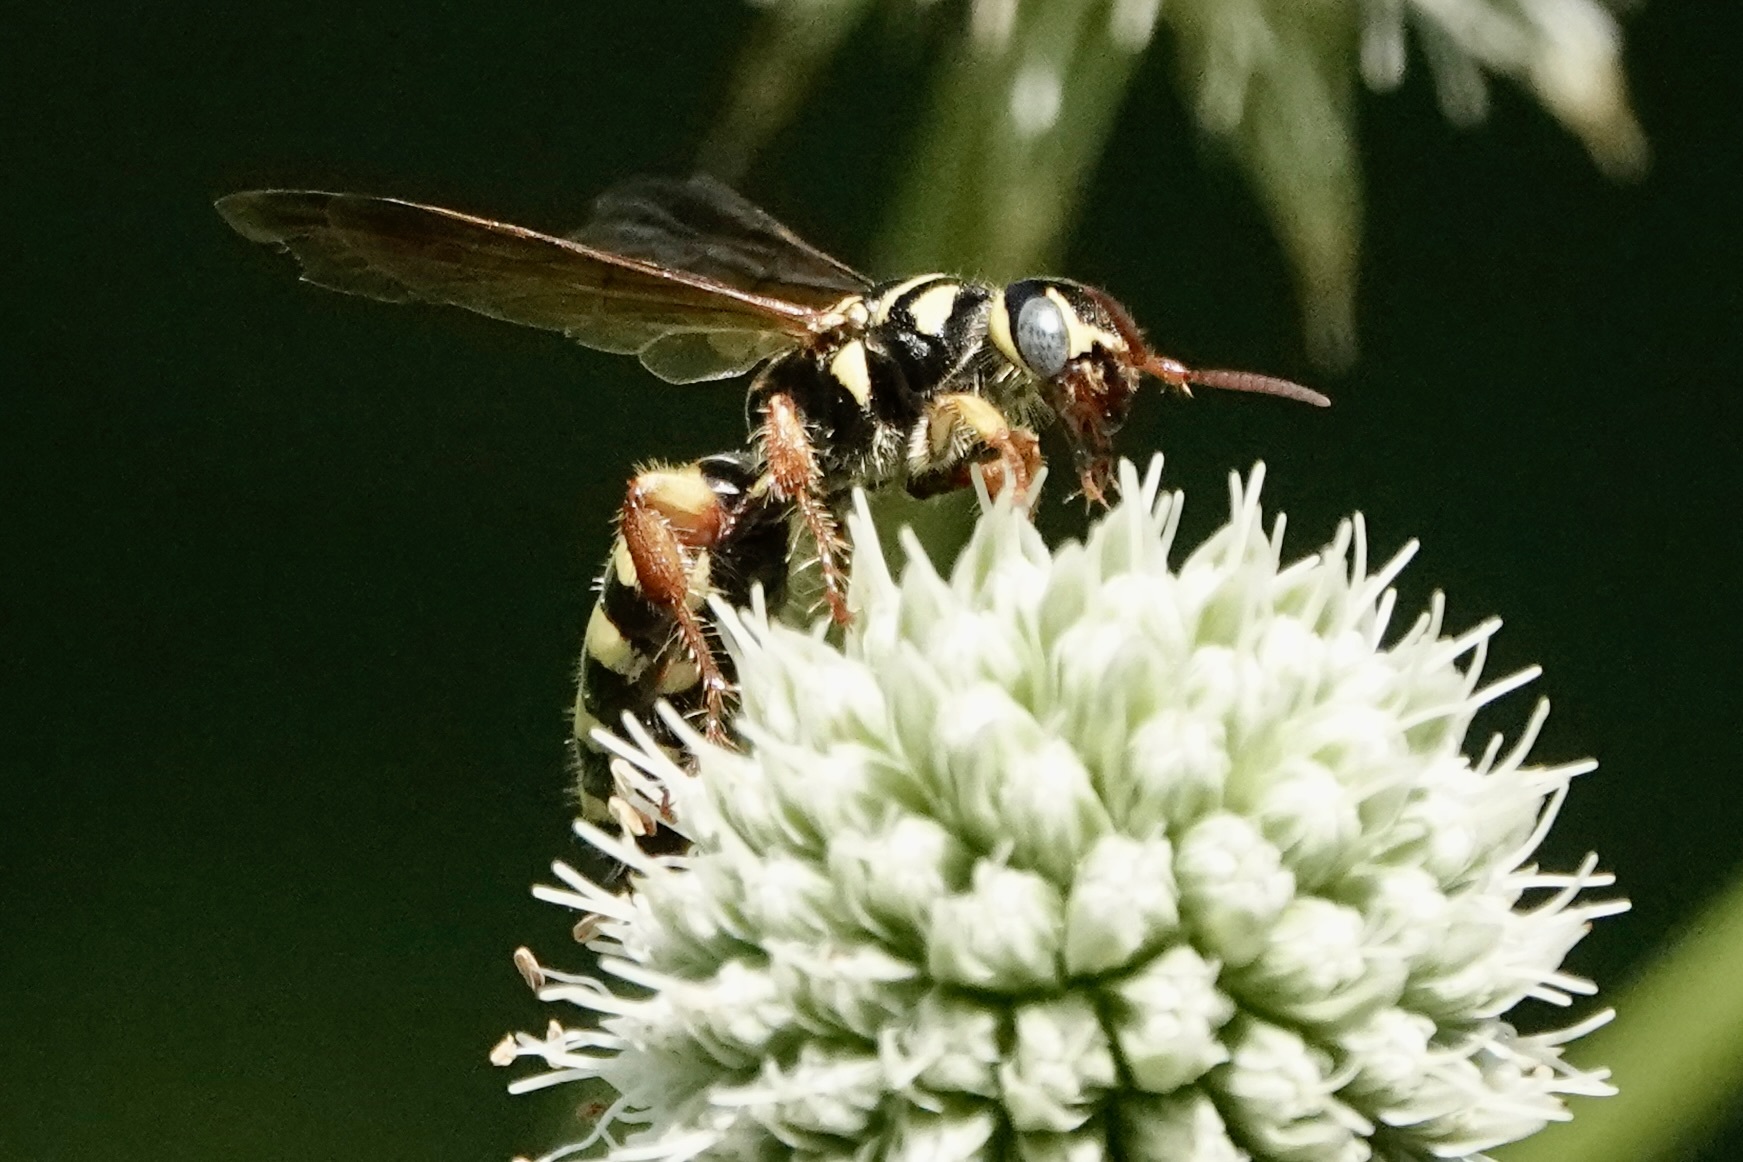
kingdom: Animalia
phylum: Arthropoda
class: Insecta
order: Hymenoptera
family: Tiphiidae
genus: Myzinum
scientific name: Myzinum quinquecinctum
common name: Five-banded thynnid wasp
